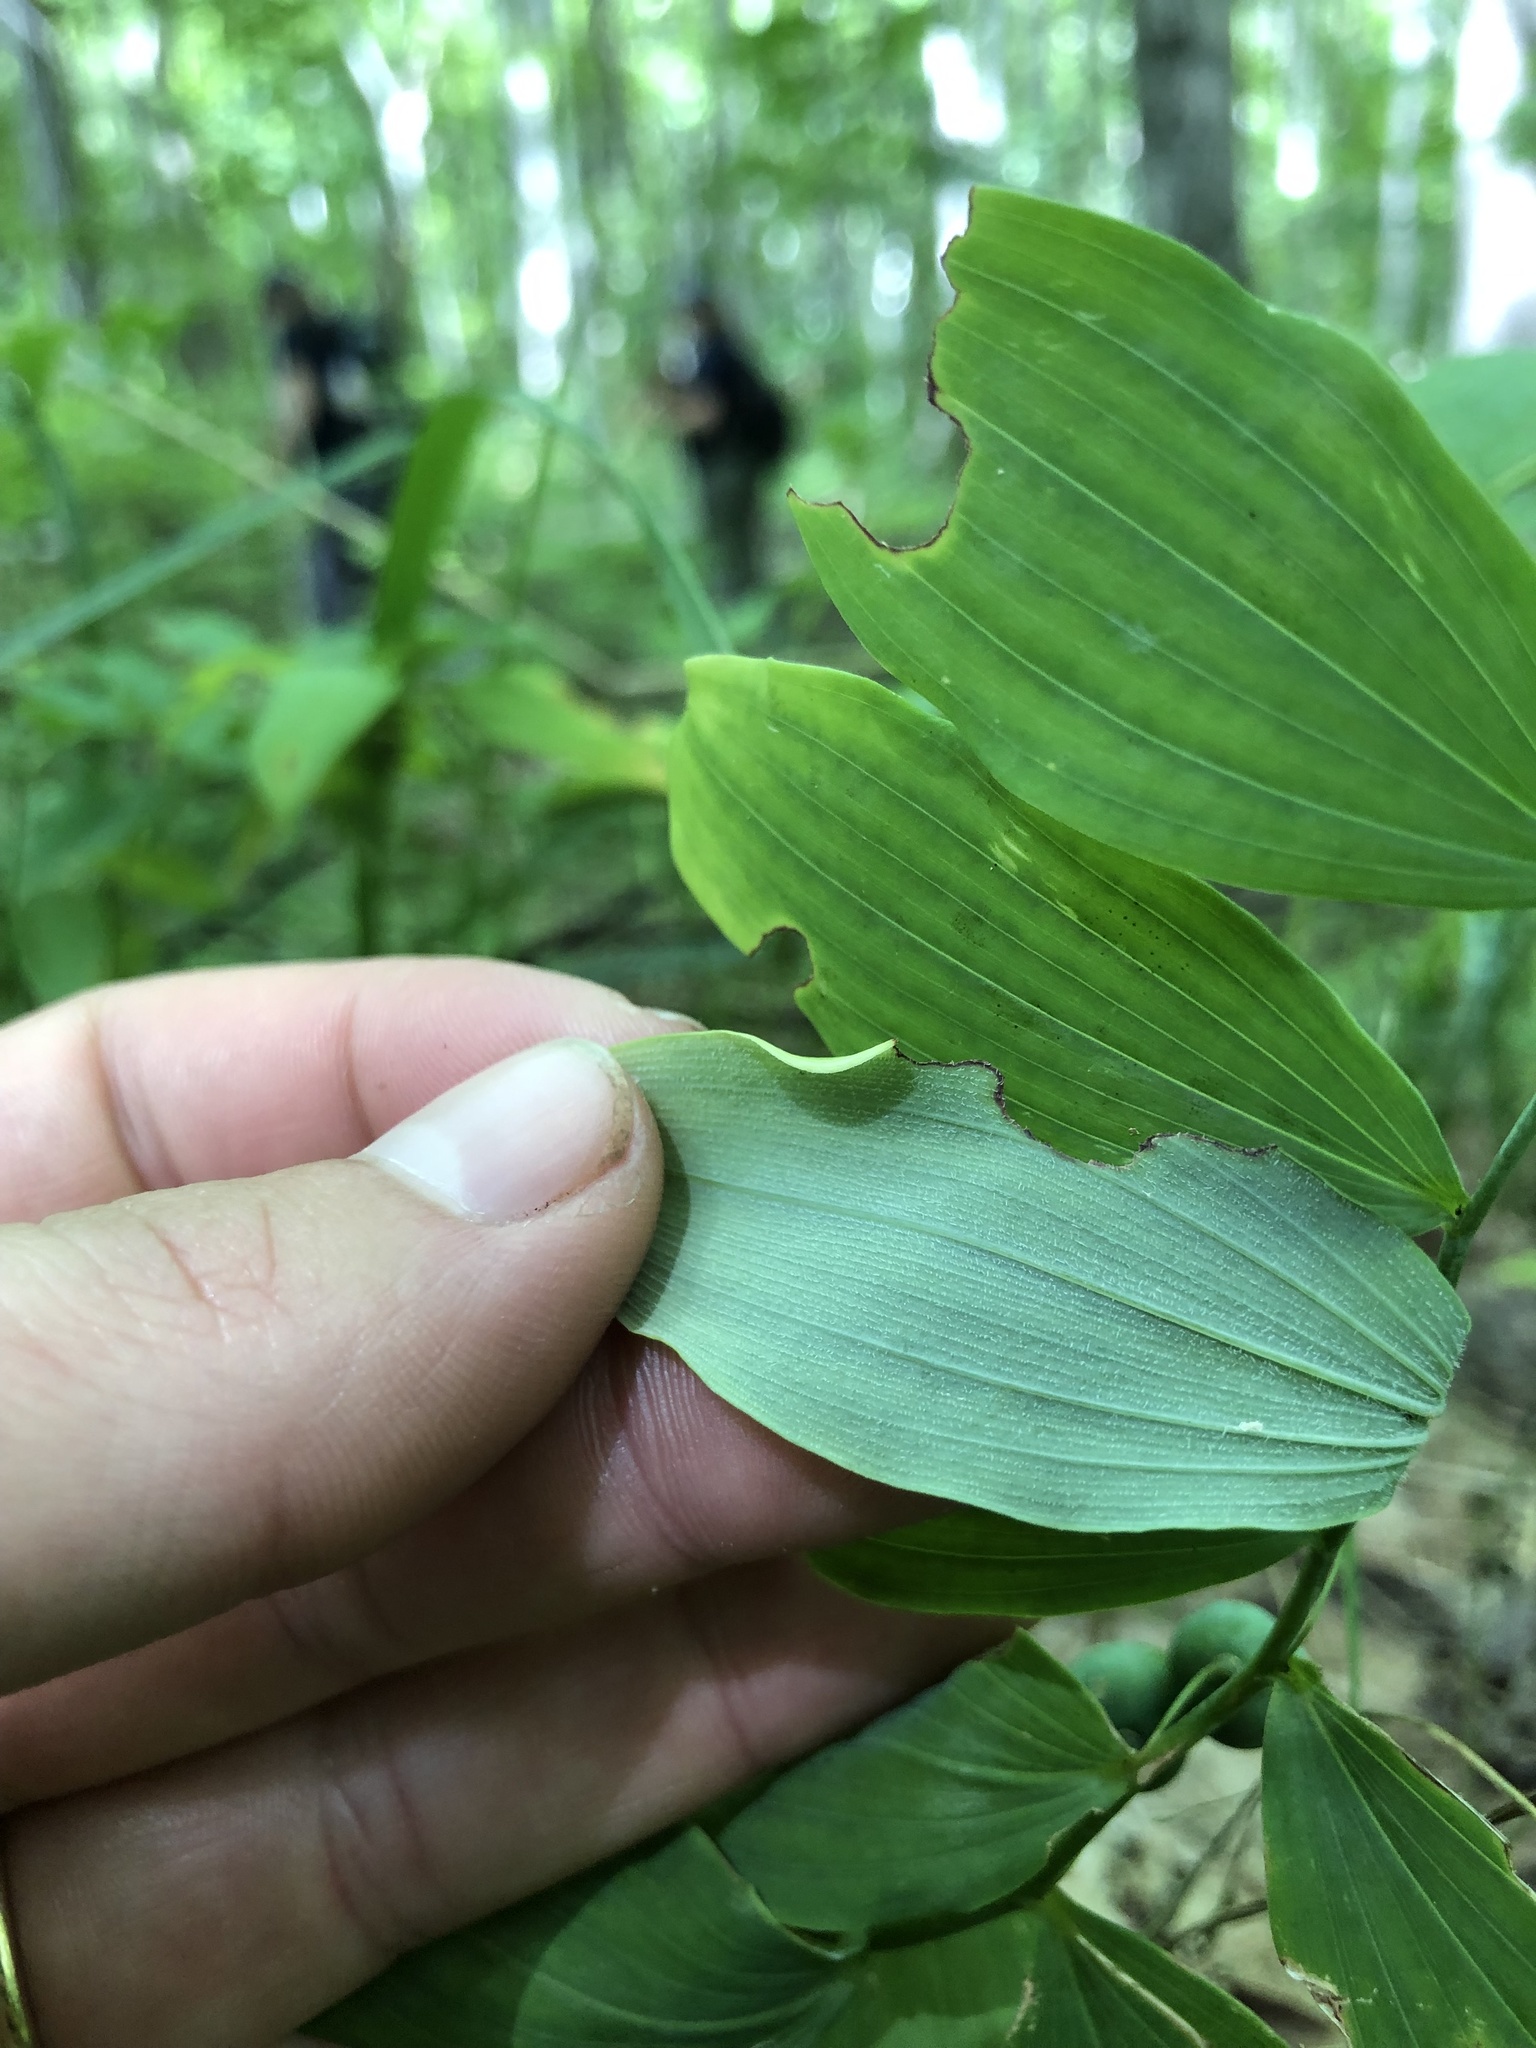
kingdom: Plantae
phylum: Tracheophyta
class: Liliopsida
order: Asparagales
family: Asparagaceae
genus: Polygonatum
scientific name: Polygonatum pubescens
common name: Downy solomon's seal
